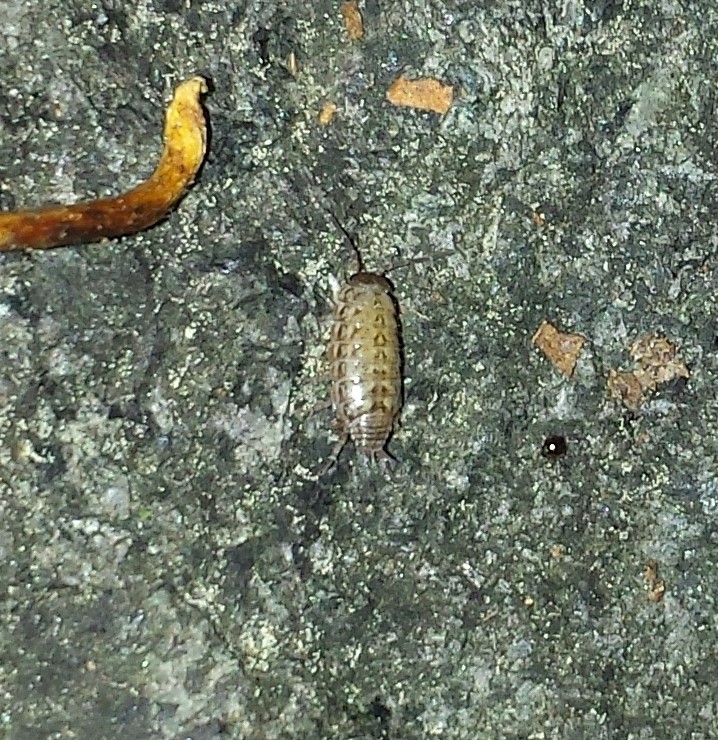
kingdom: Animalia
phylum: Arthropoda
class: Malacostraca
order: Isopoda
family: Philosciidae
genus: Philoscia
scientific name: Philoscia muscorum
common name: Common striped woodlouse
